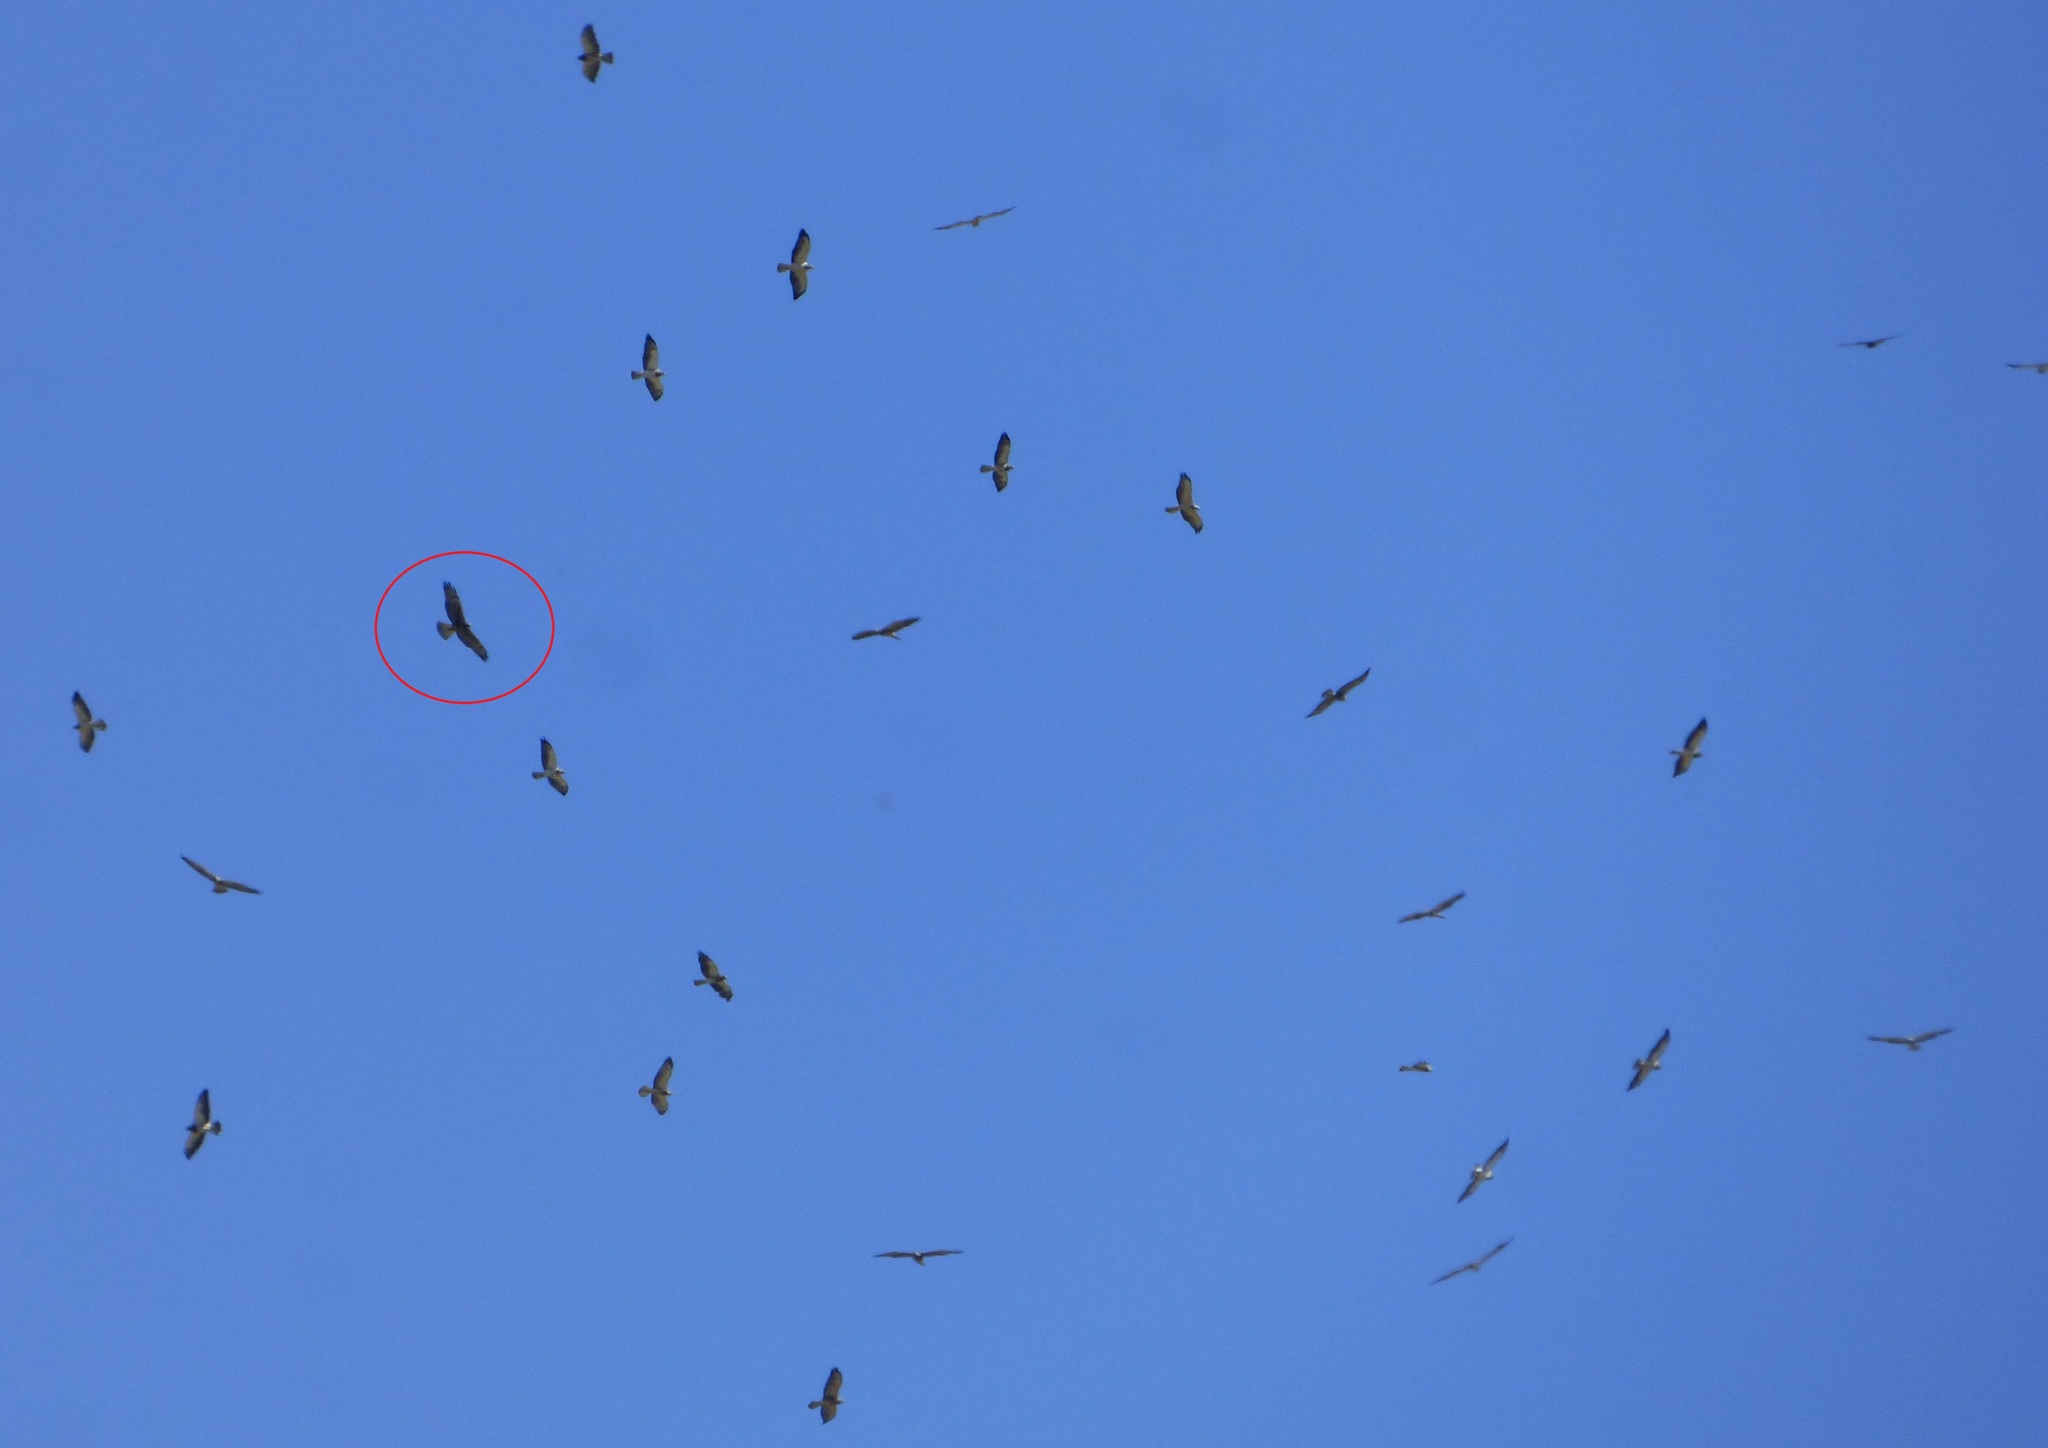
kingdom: Animalia
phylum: Chordata
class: Aves
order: Accipitriformes
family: Accipitridae
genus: Buteo
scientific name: Buteo albicaudatus
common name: White-tailed hawk
